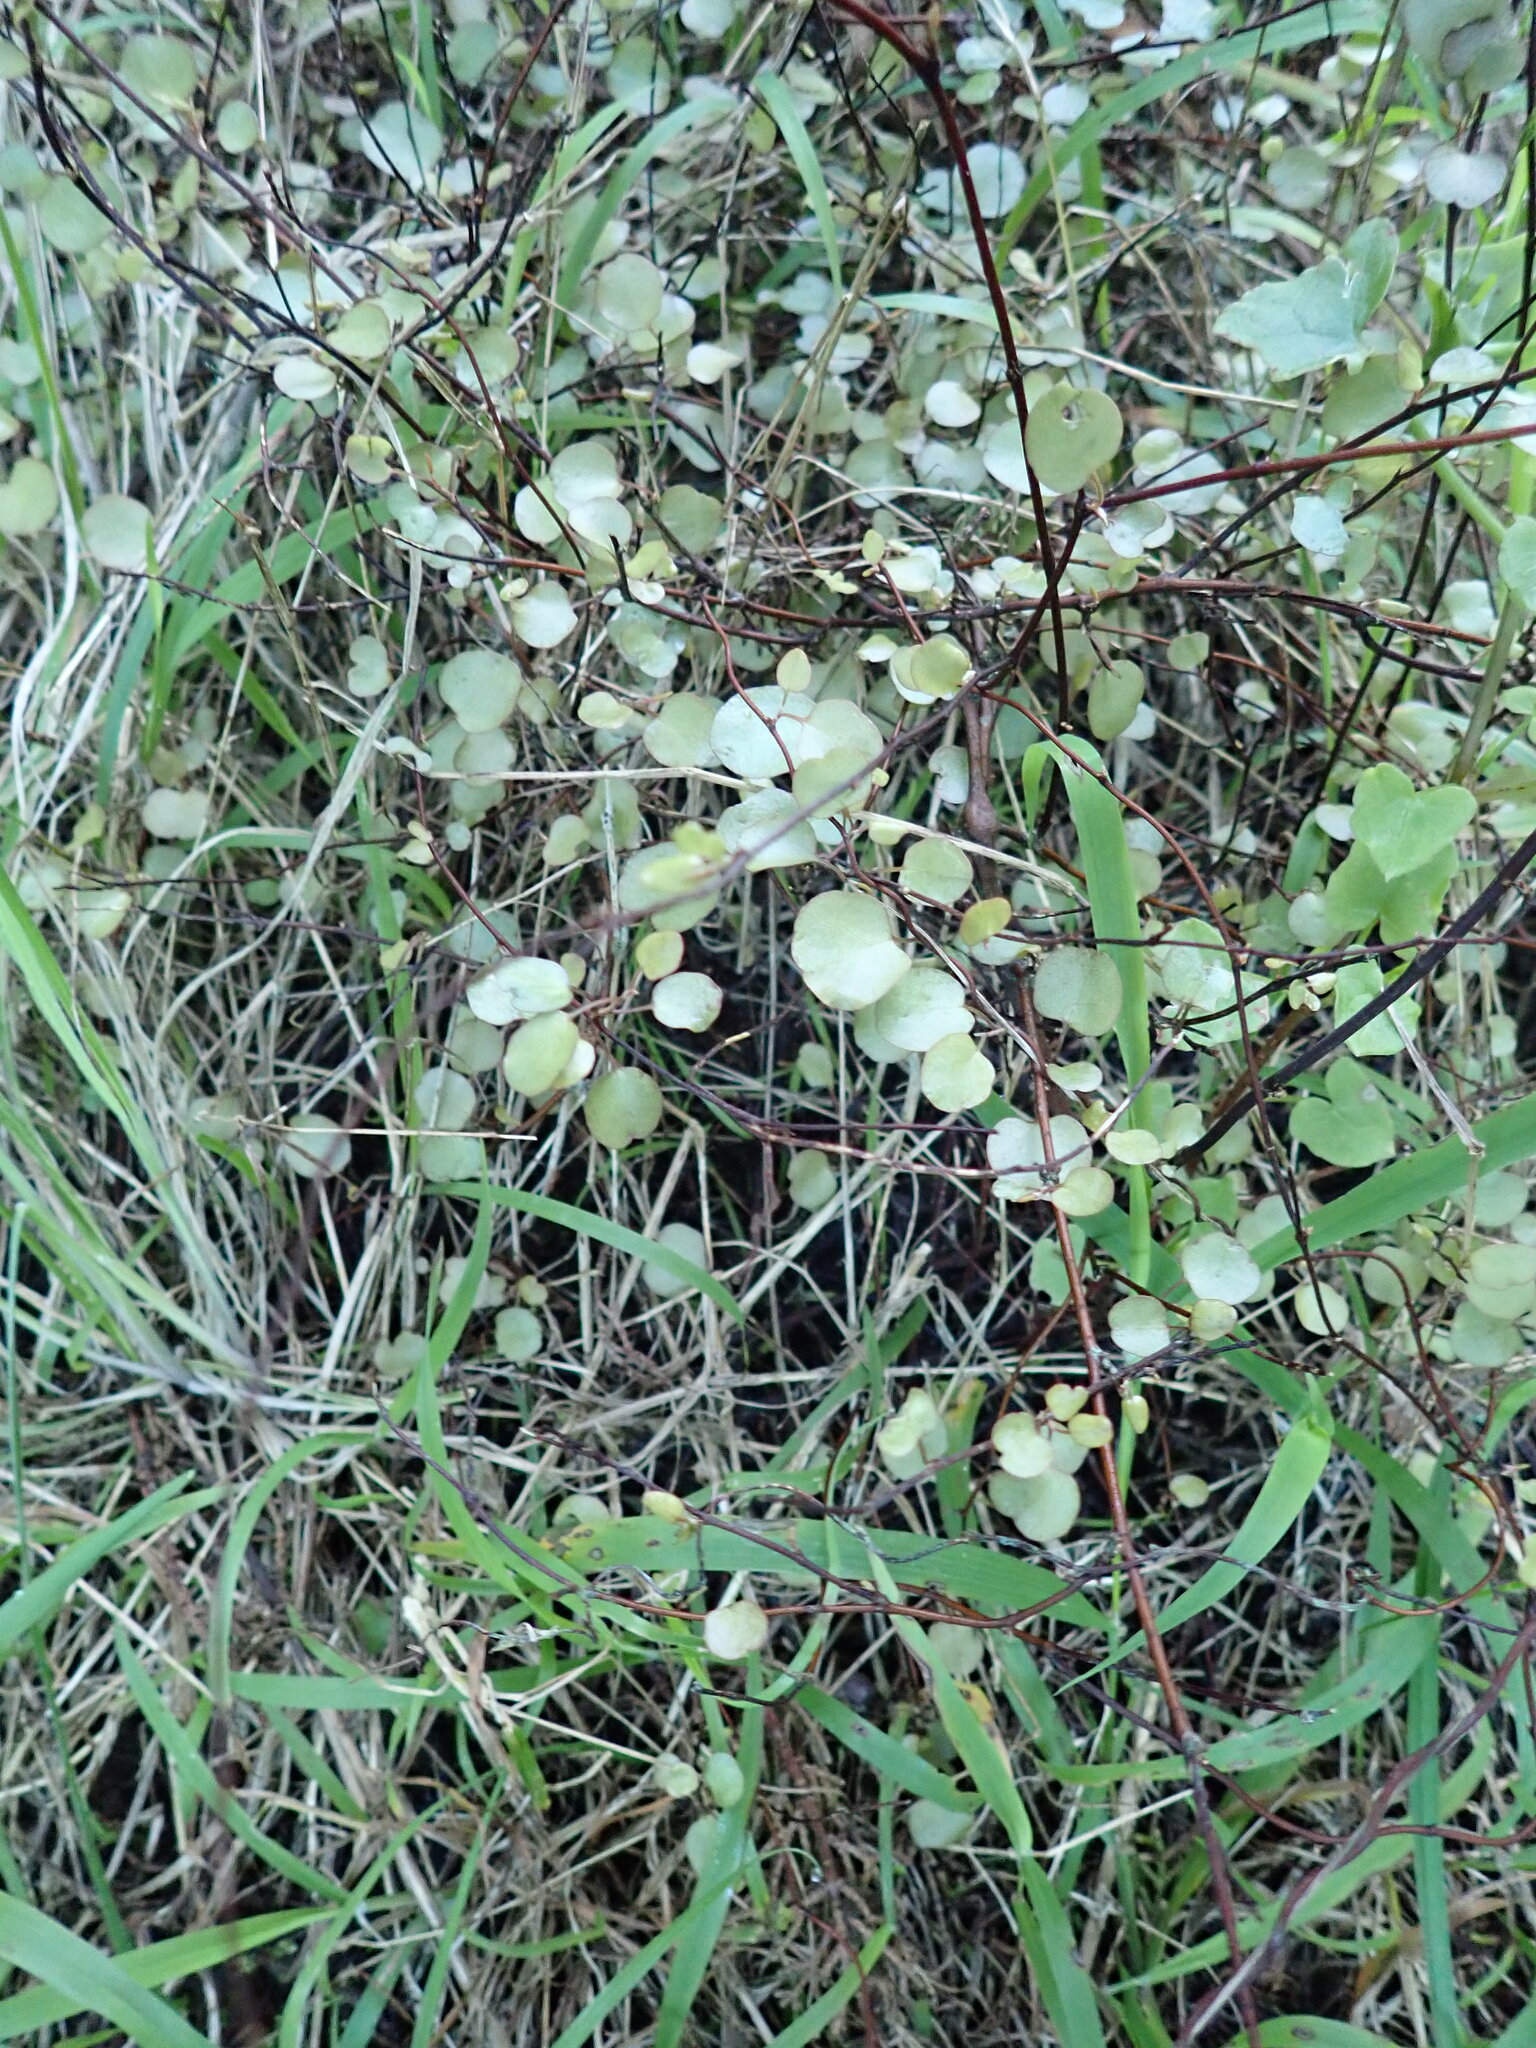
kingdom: Plantae
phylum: Tracheophyta
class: Magnoliopsida
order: Caryophyllales
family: Polygonaceae
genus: Muehlenbeckia
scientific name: Muehlenbeckia complexa
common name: Wireplant
